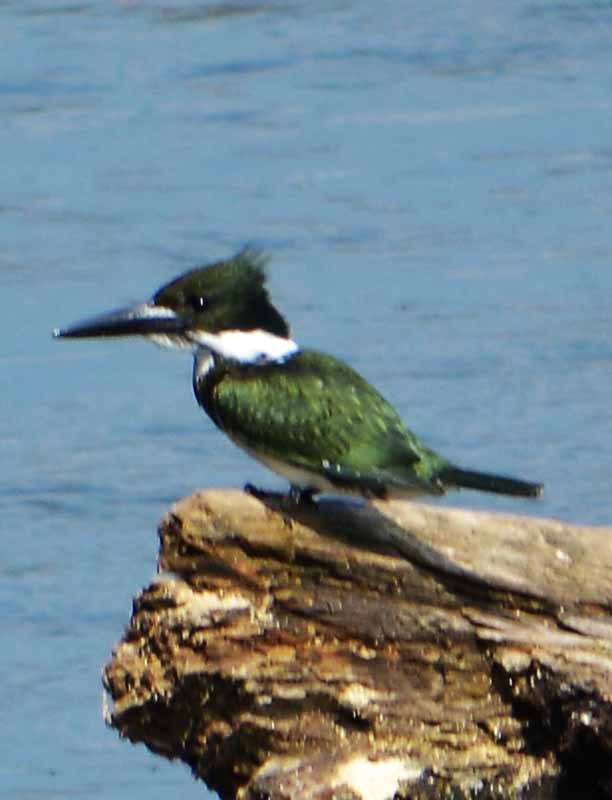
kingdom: Animalia
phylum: Chordata
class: Aves
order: Coraciiformes
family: Alcedinidae
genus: Chloroceryle
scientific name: Chloroceryle amazona
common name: Amazon kingfisher
